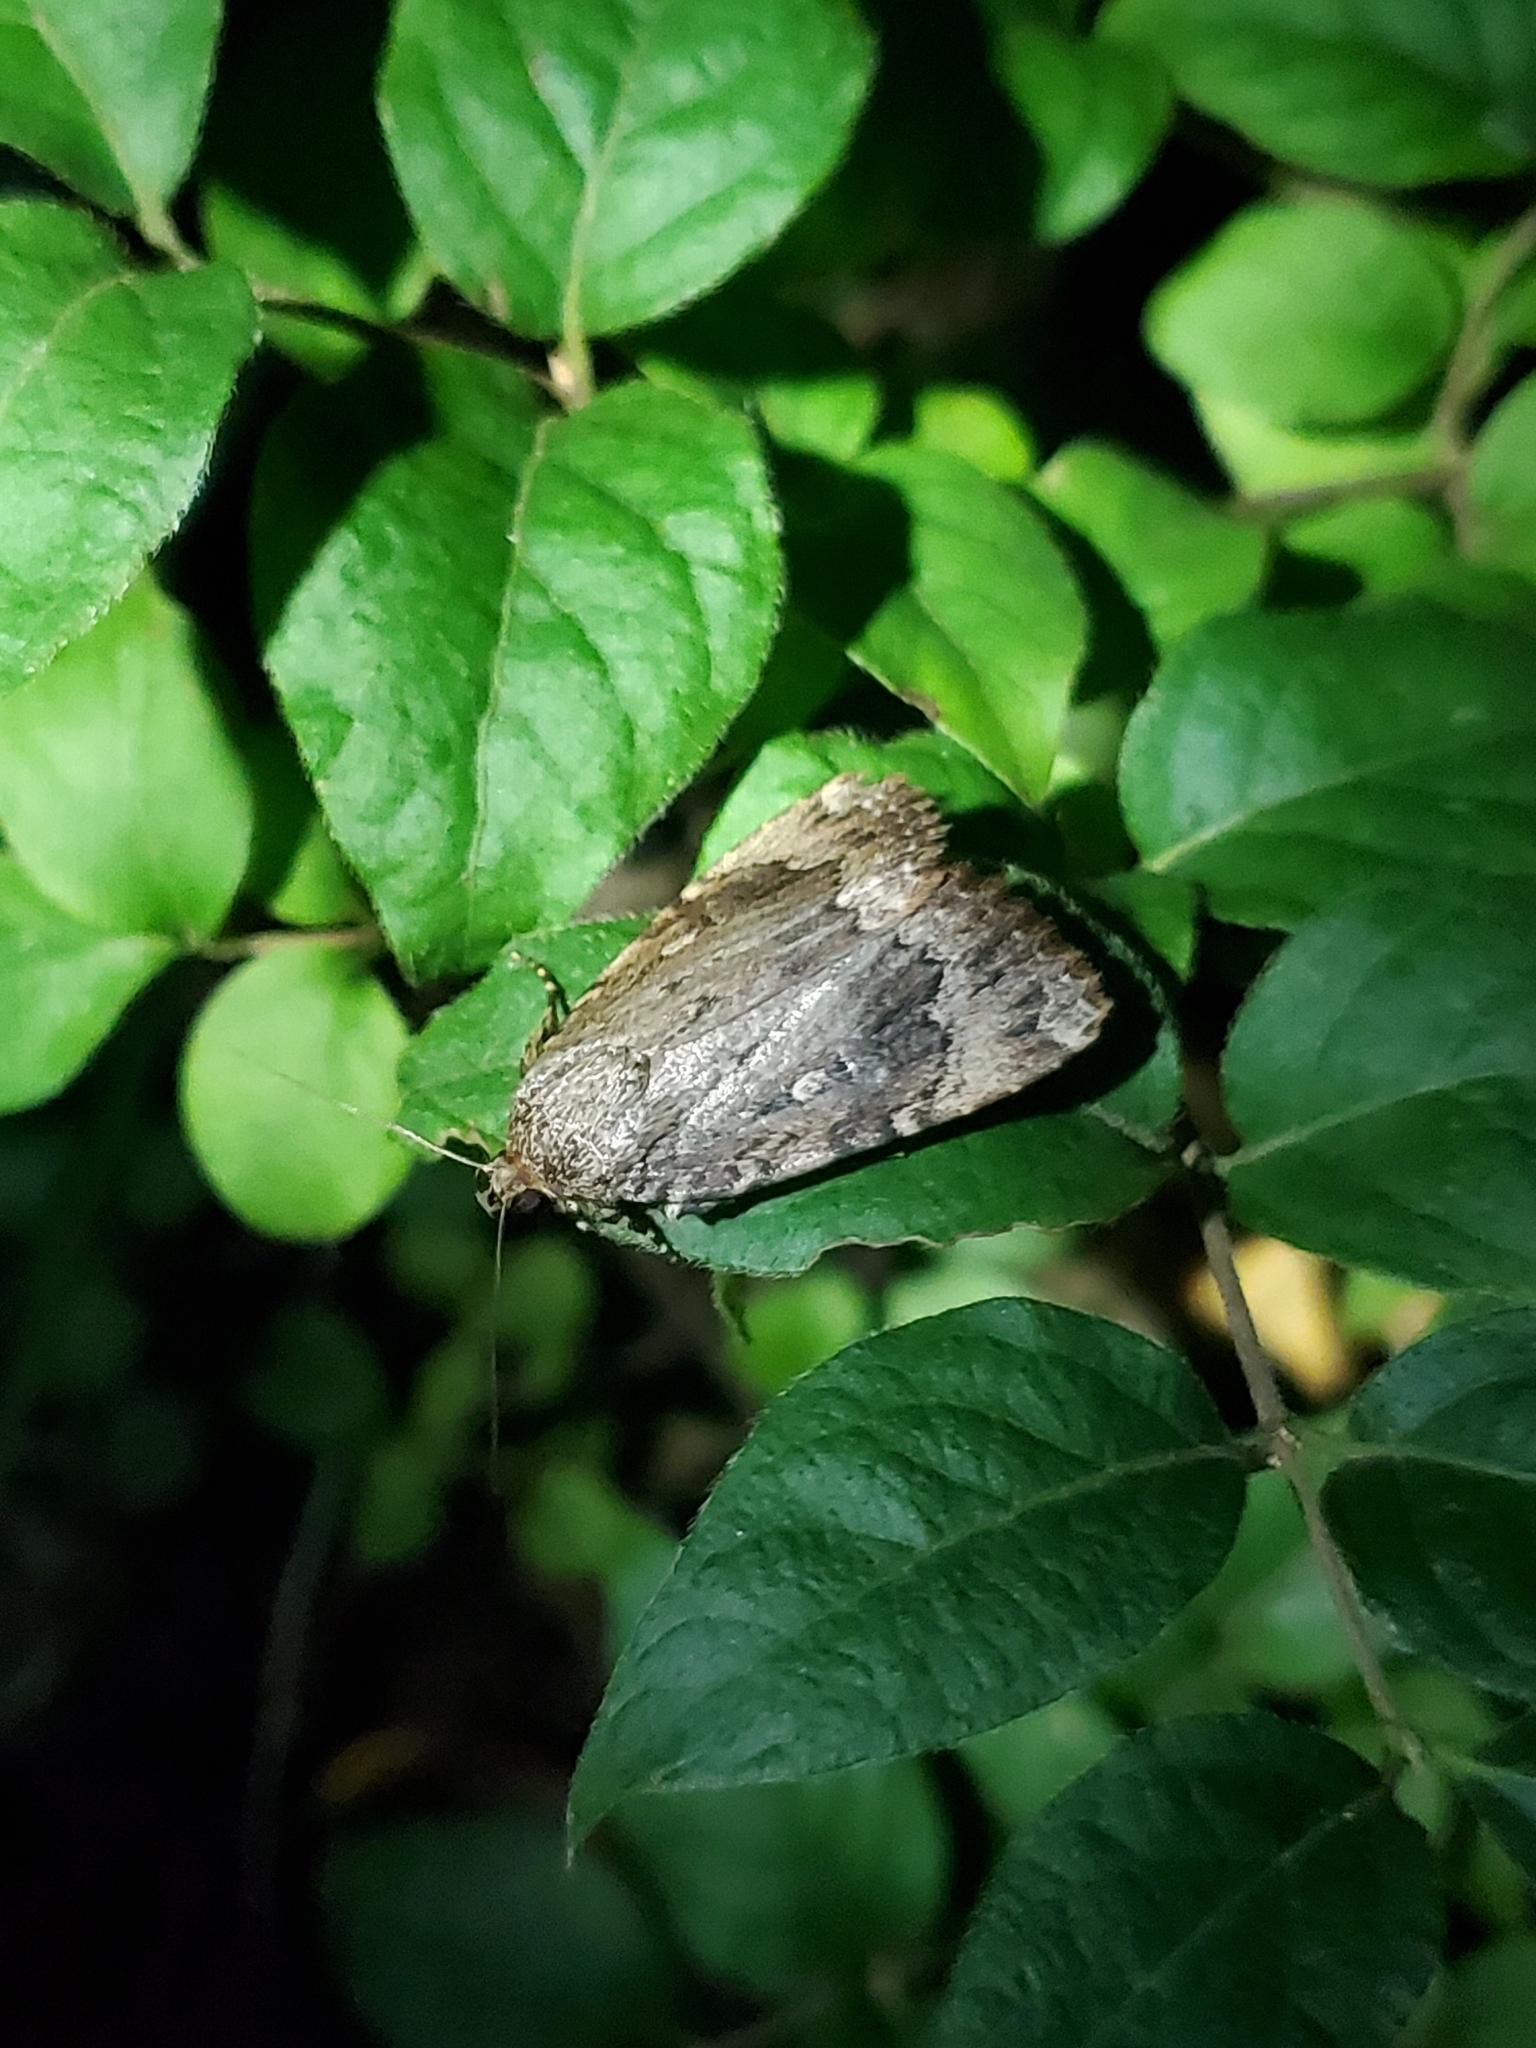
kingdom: Animalia
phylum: Arthropoda
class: Insecta
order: Lepidoptera
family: Noctuidae
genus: Amphipyra
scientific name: Amphipyra pyramidoides
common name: American copper underwing
